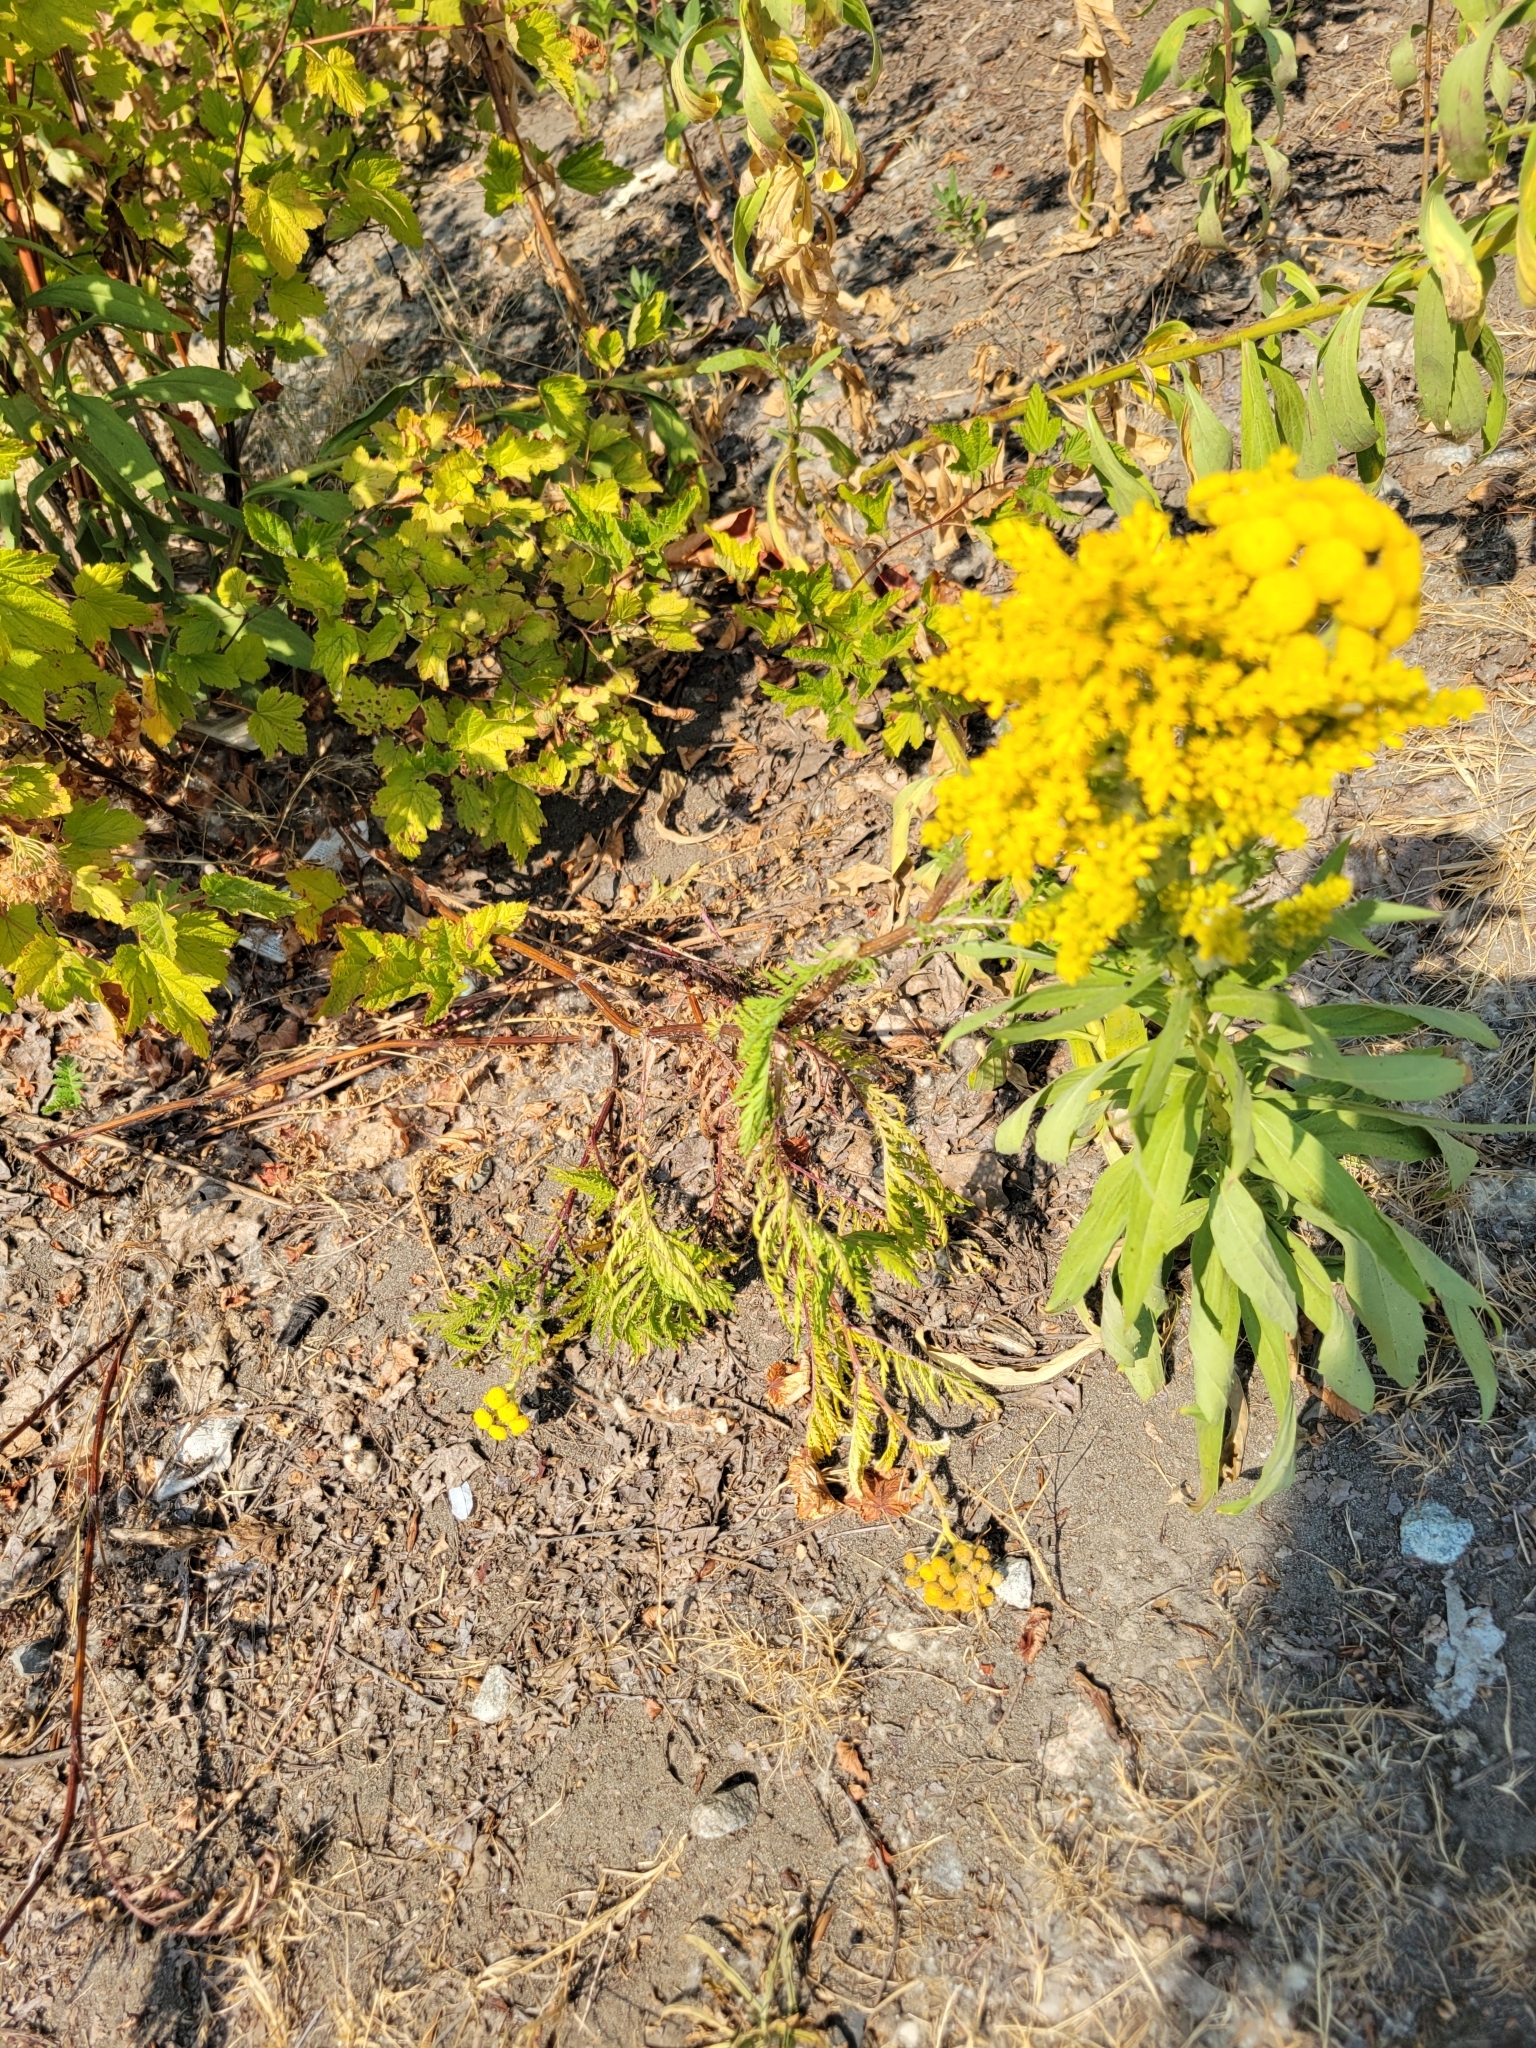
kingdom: Plantae
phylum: Tracheophyta
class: Magnoliopsida
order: Asterales
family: Asteraceae
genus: Tanacetum
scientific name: Tanacetum vulgare
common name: Common tansy
